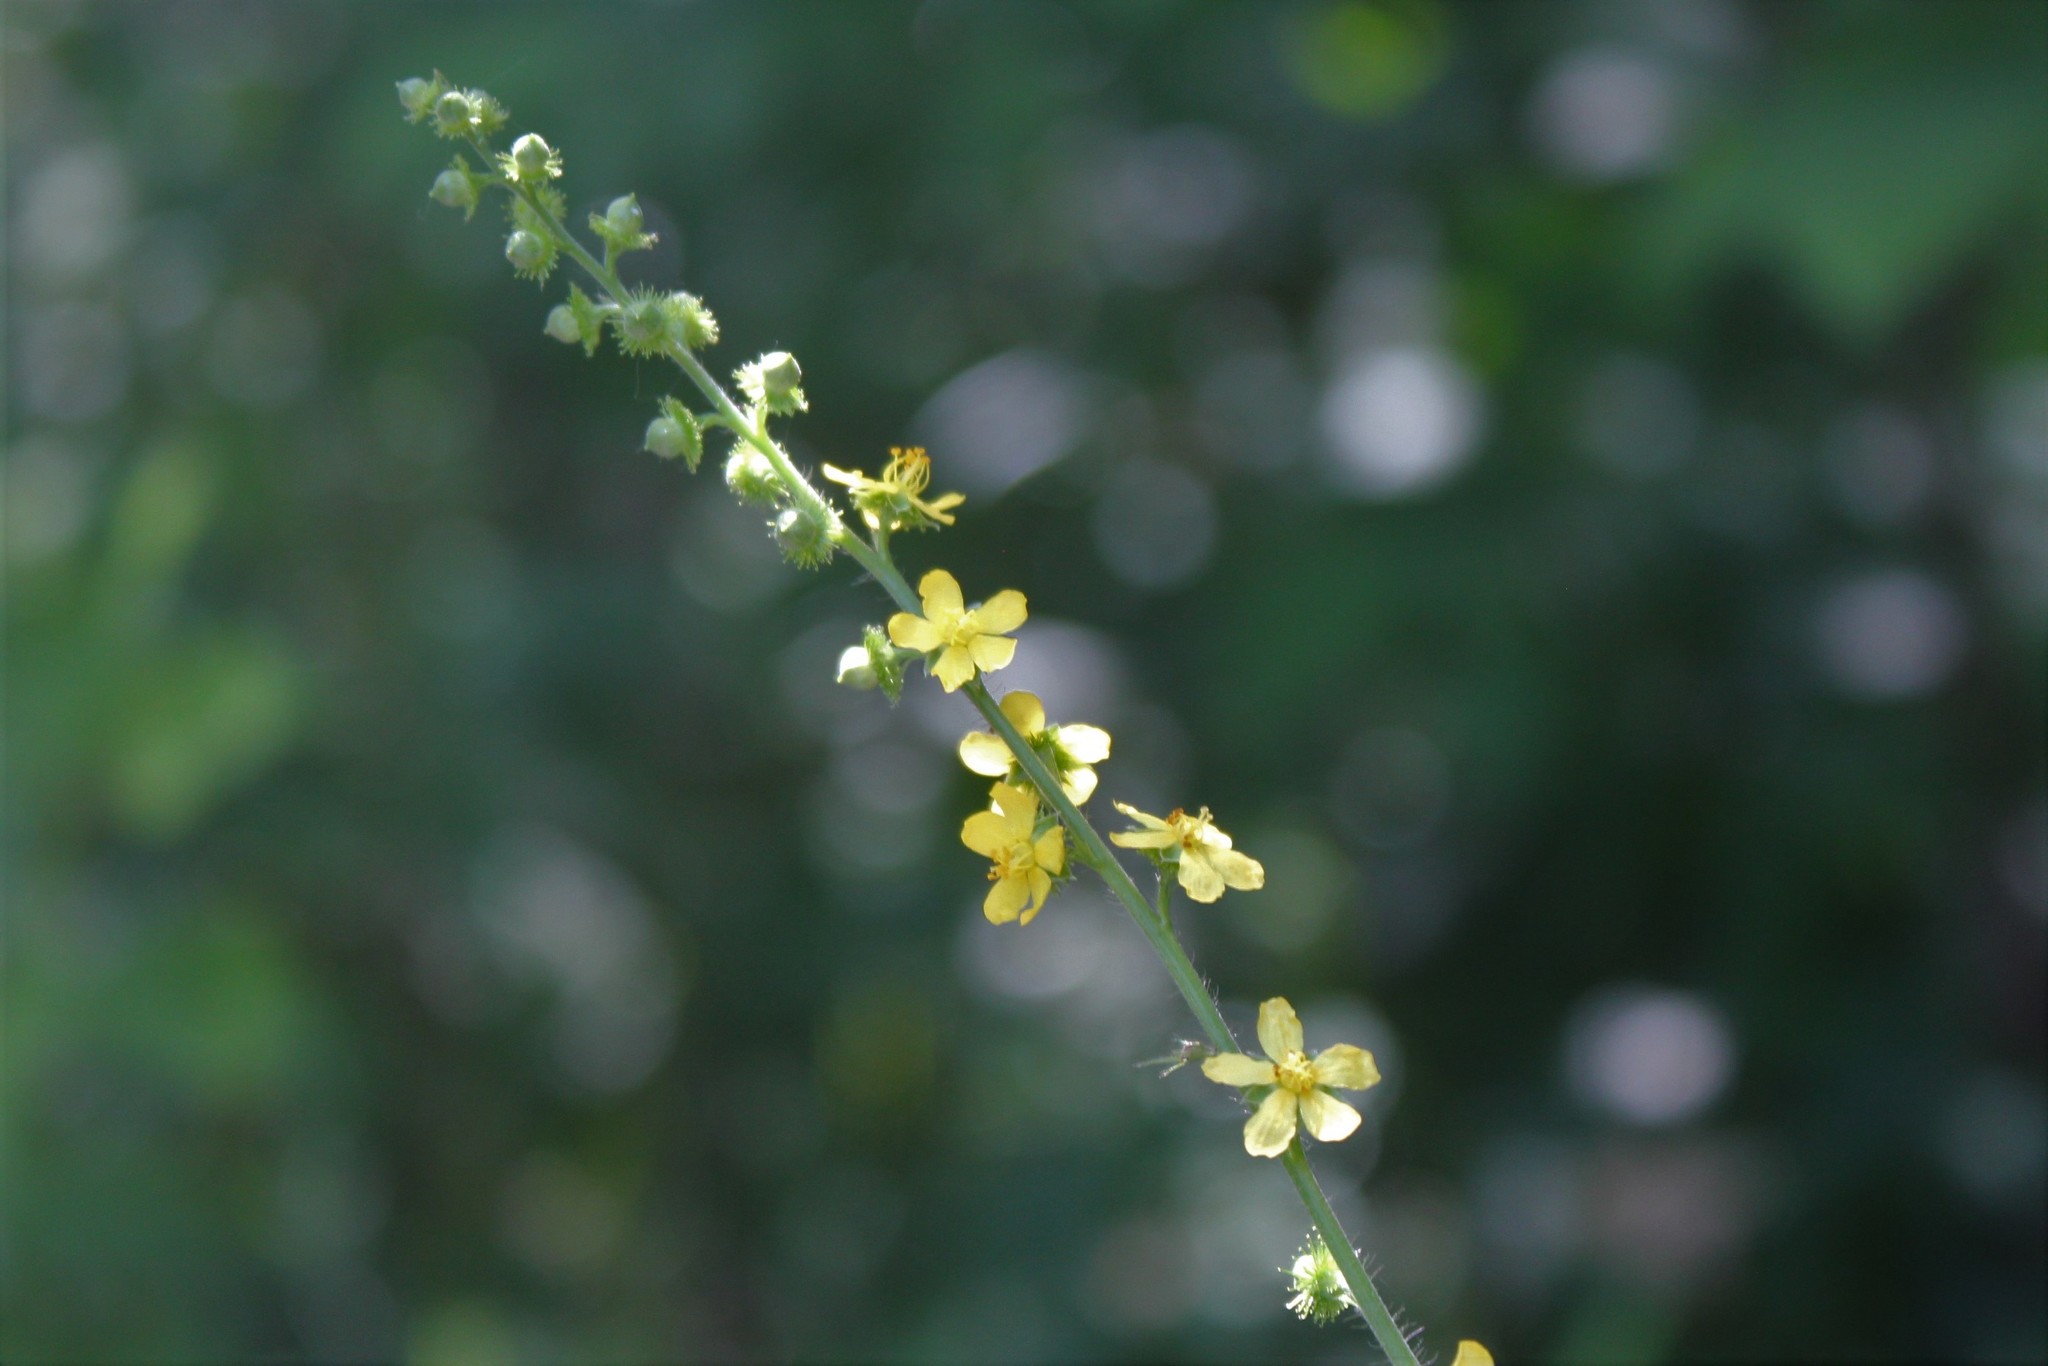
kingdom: Plantae
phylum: Tracheophyta
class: Magnoliopsida
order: Rosales
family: Rosaceae
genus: Agrimonia
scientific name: Agrimonia gryposepala
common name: Common agrimony
